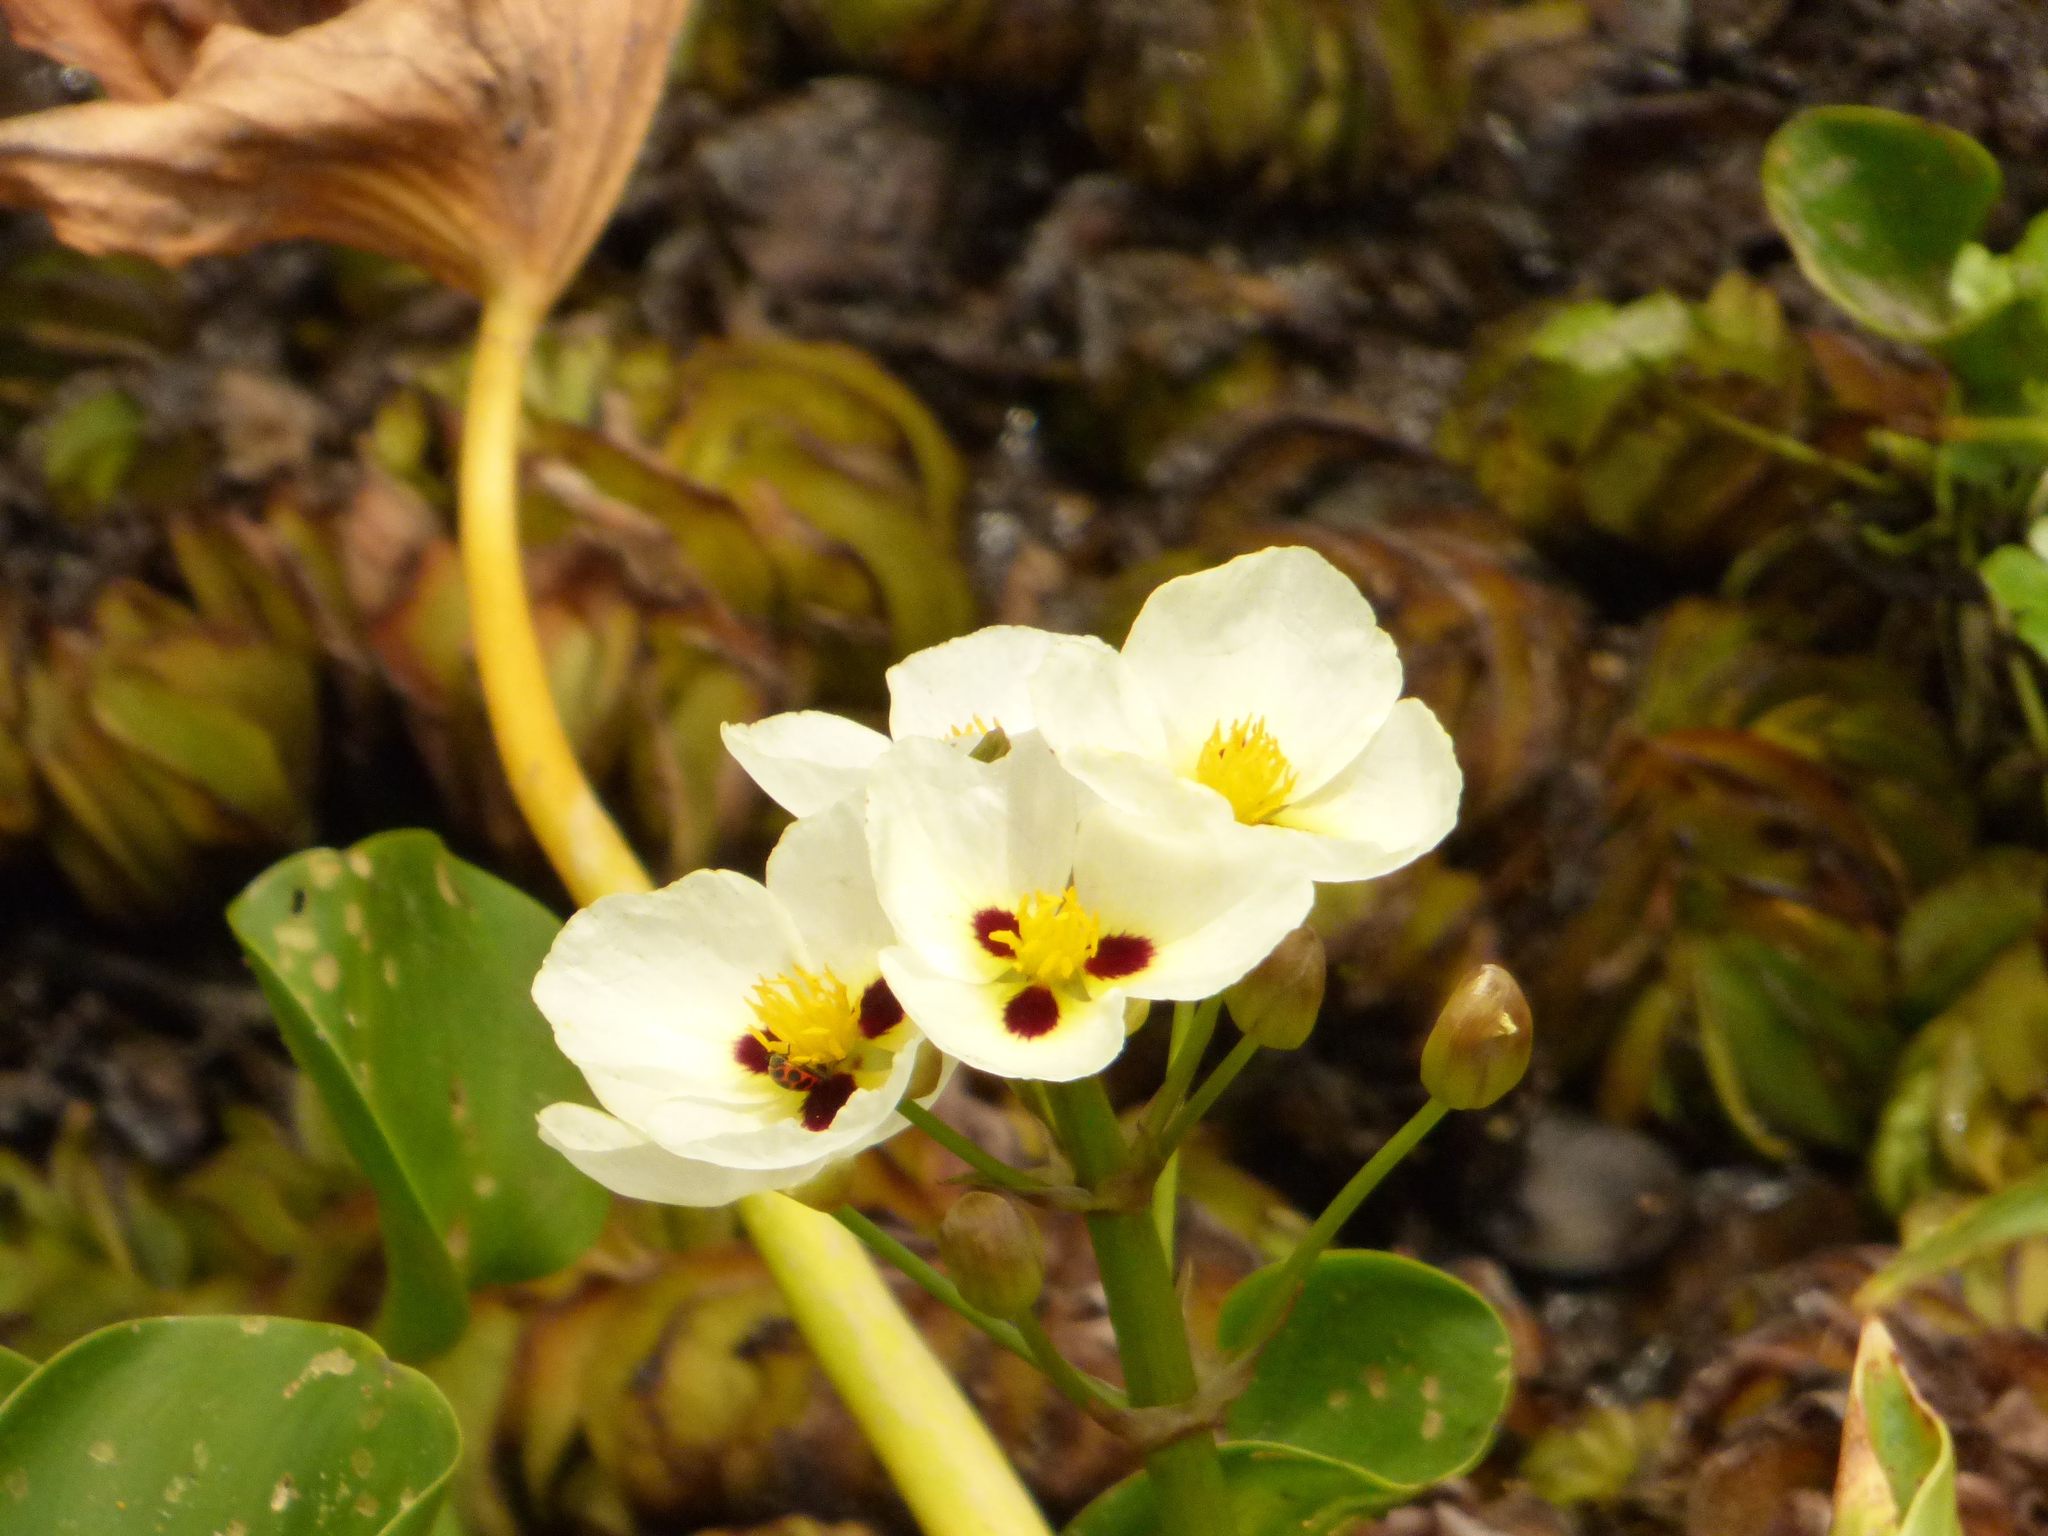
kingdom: Plantae
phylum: Tracheophyta
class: Liliopsida
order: Alismatales
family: Alismataceae
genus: Sagittaria
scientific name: Sagittaria montevidensis
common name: Giant arrowhead
